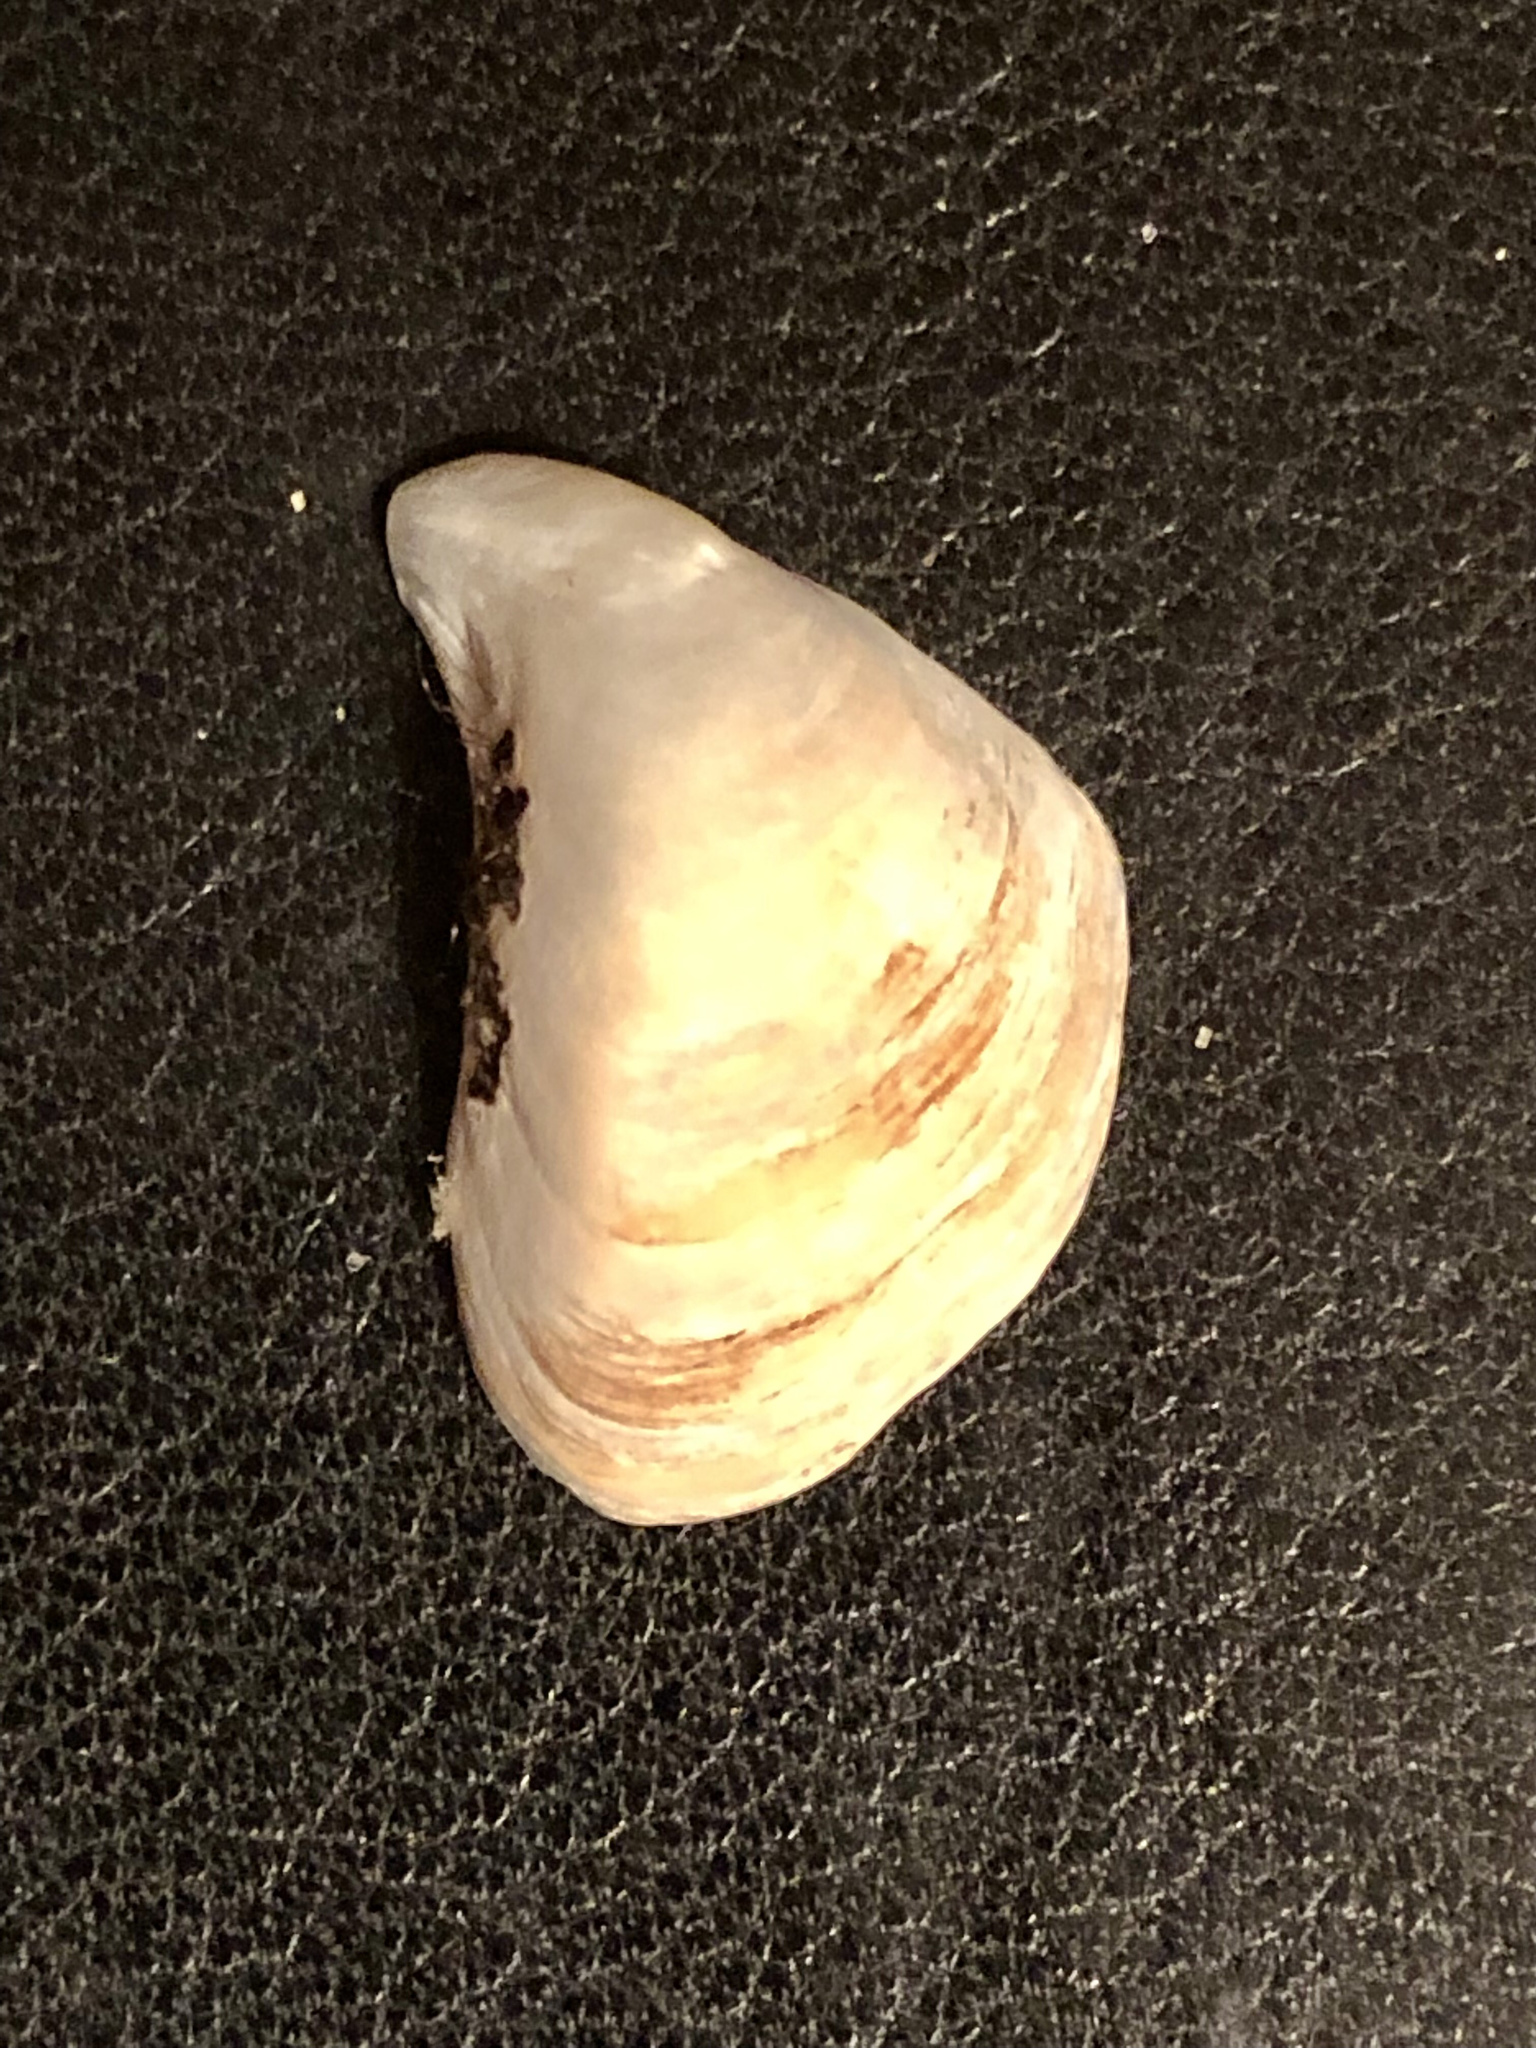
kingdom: Animalia
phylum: Mollusca
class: Bivalvia
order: Myida
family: Dreissenidae
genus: Dreissena
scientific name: Dreissena bugensis
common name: Quagga mussel
